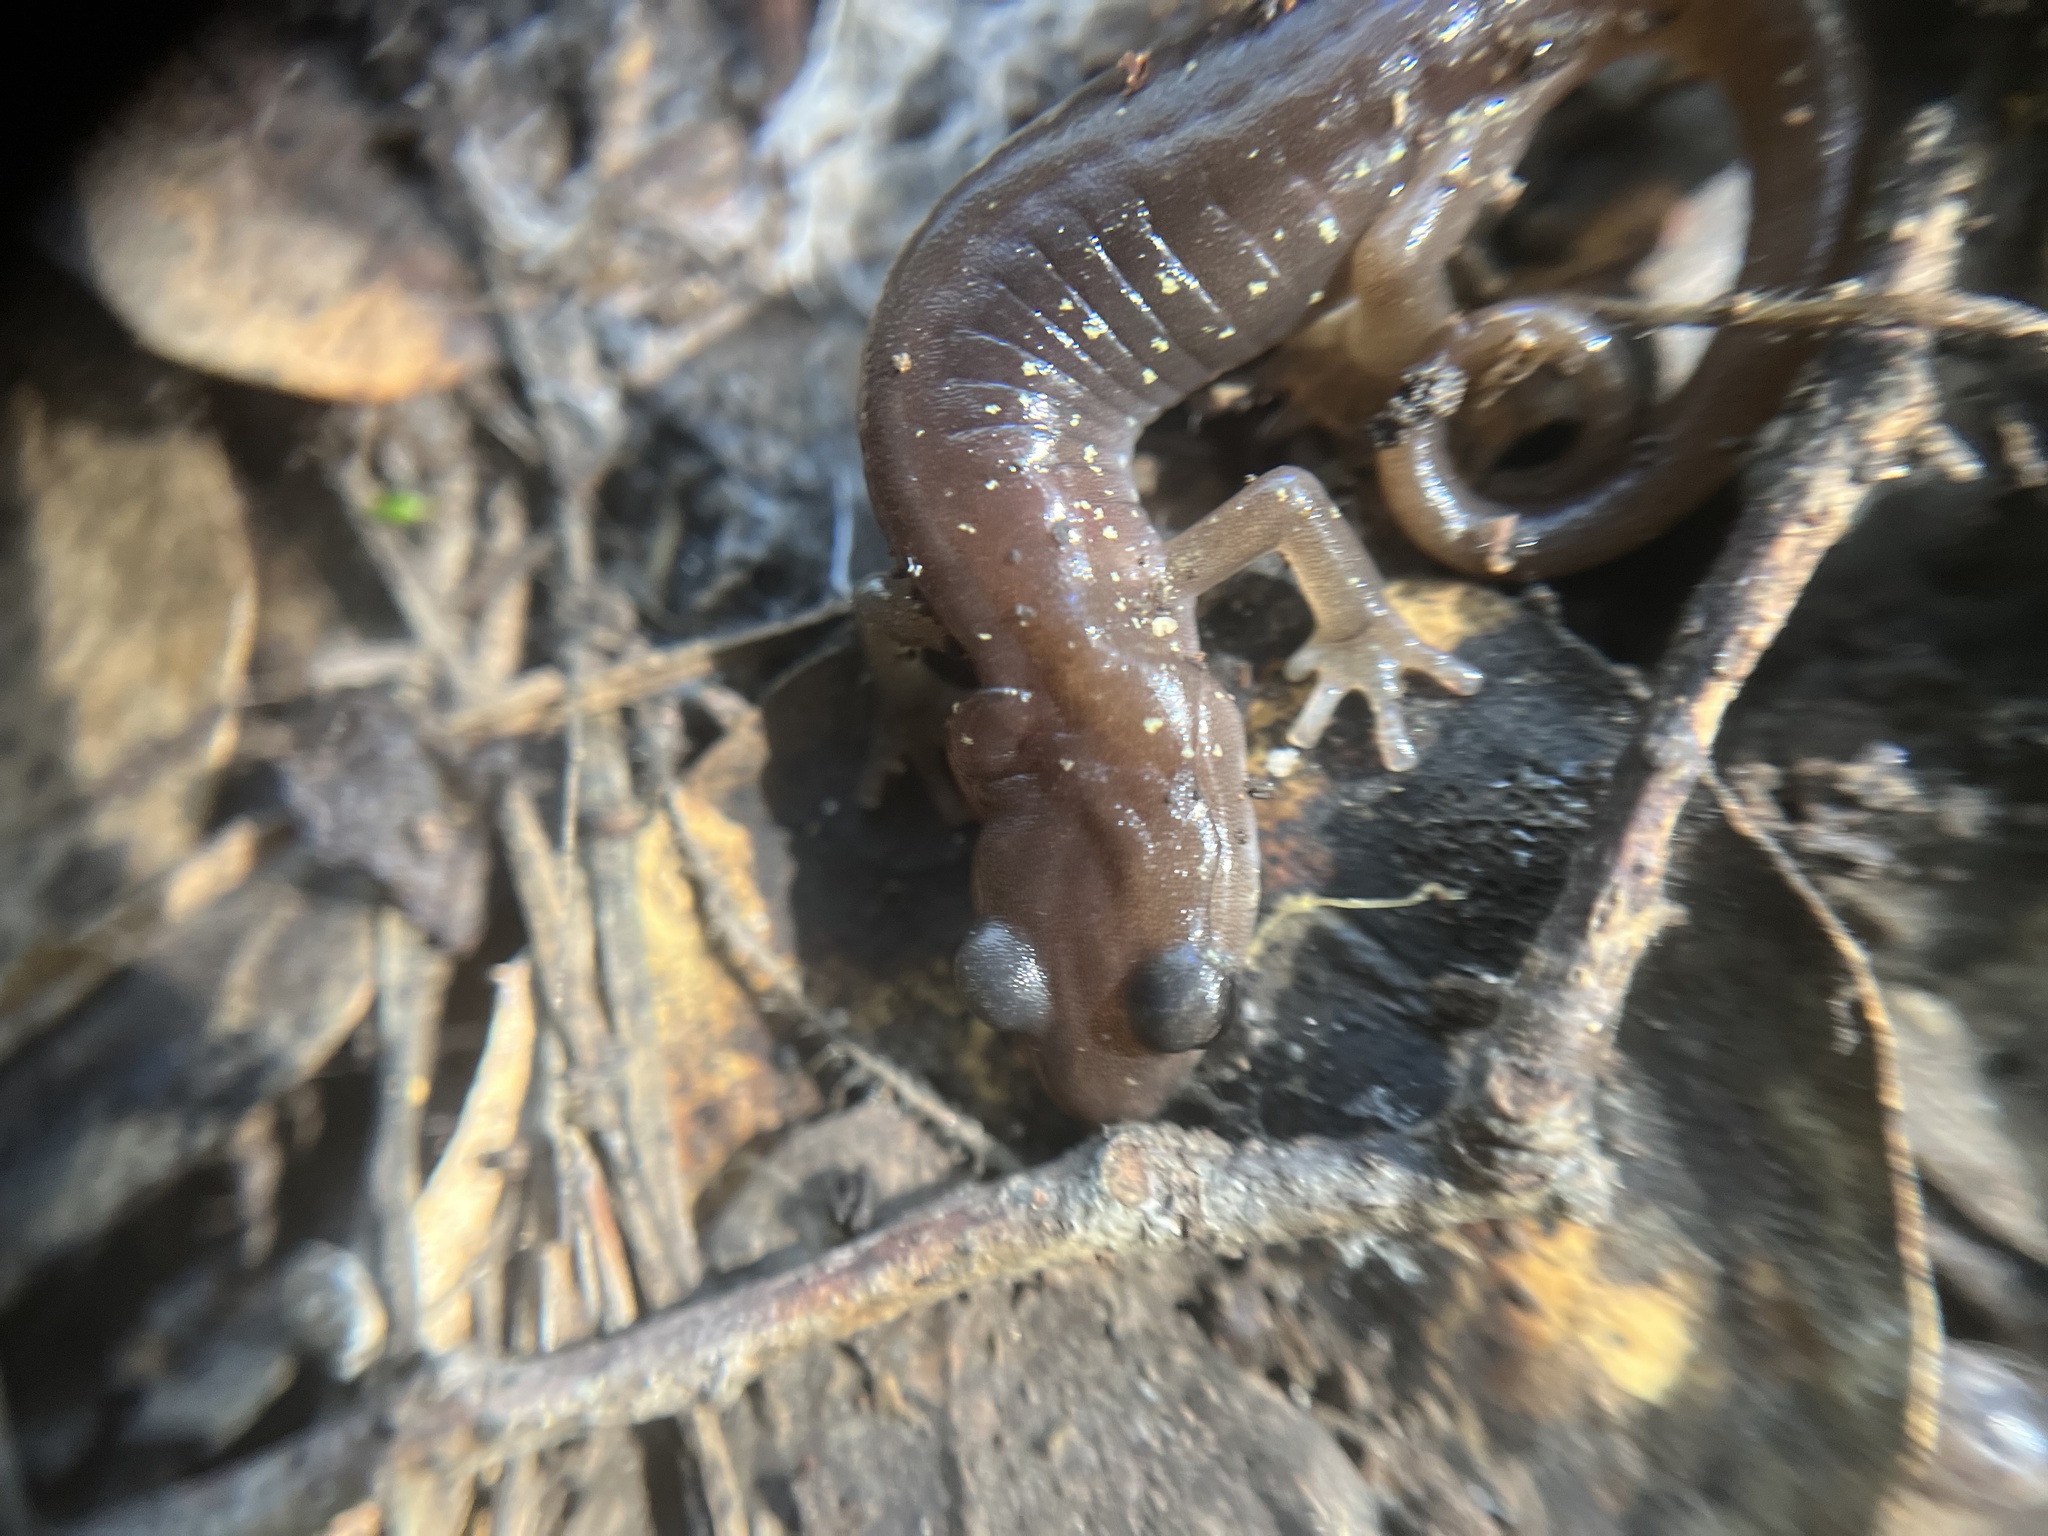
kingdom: Animalia
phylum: Chordata
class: Amphibia
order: Caudata
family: Plethodontidae
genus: Aneides
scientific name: Aneides lugubris
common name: Arboreal salamander
